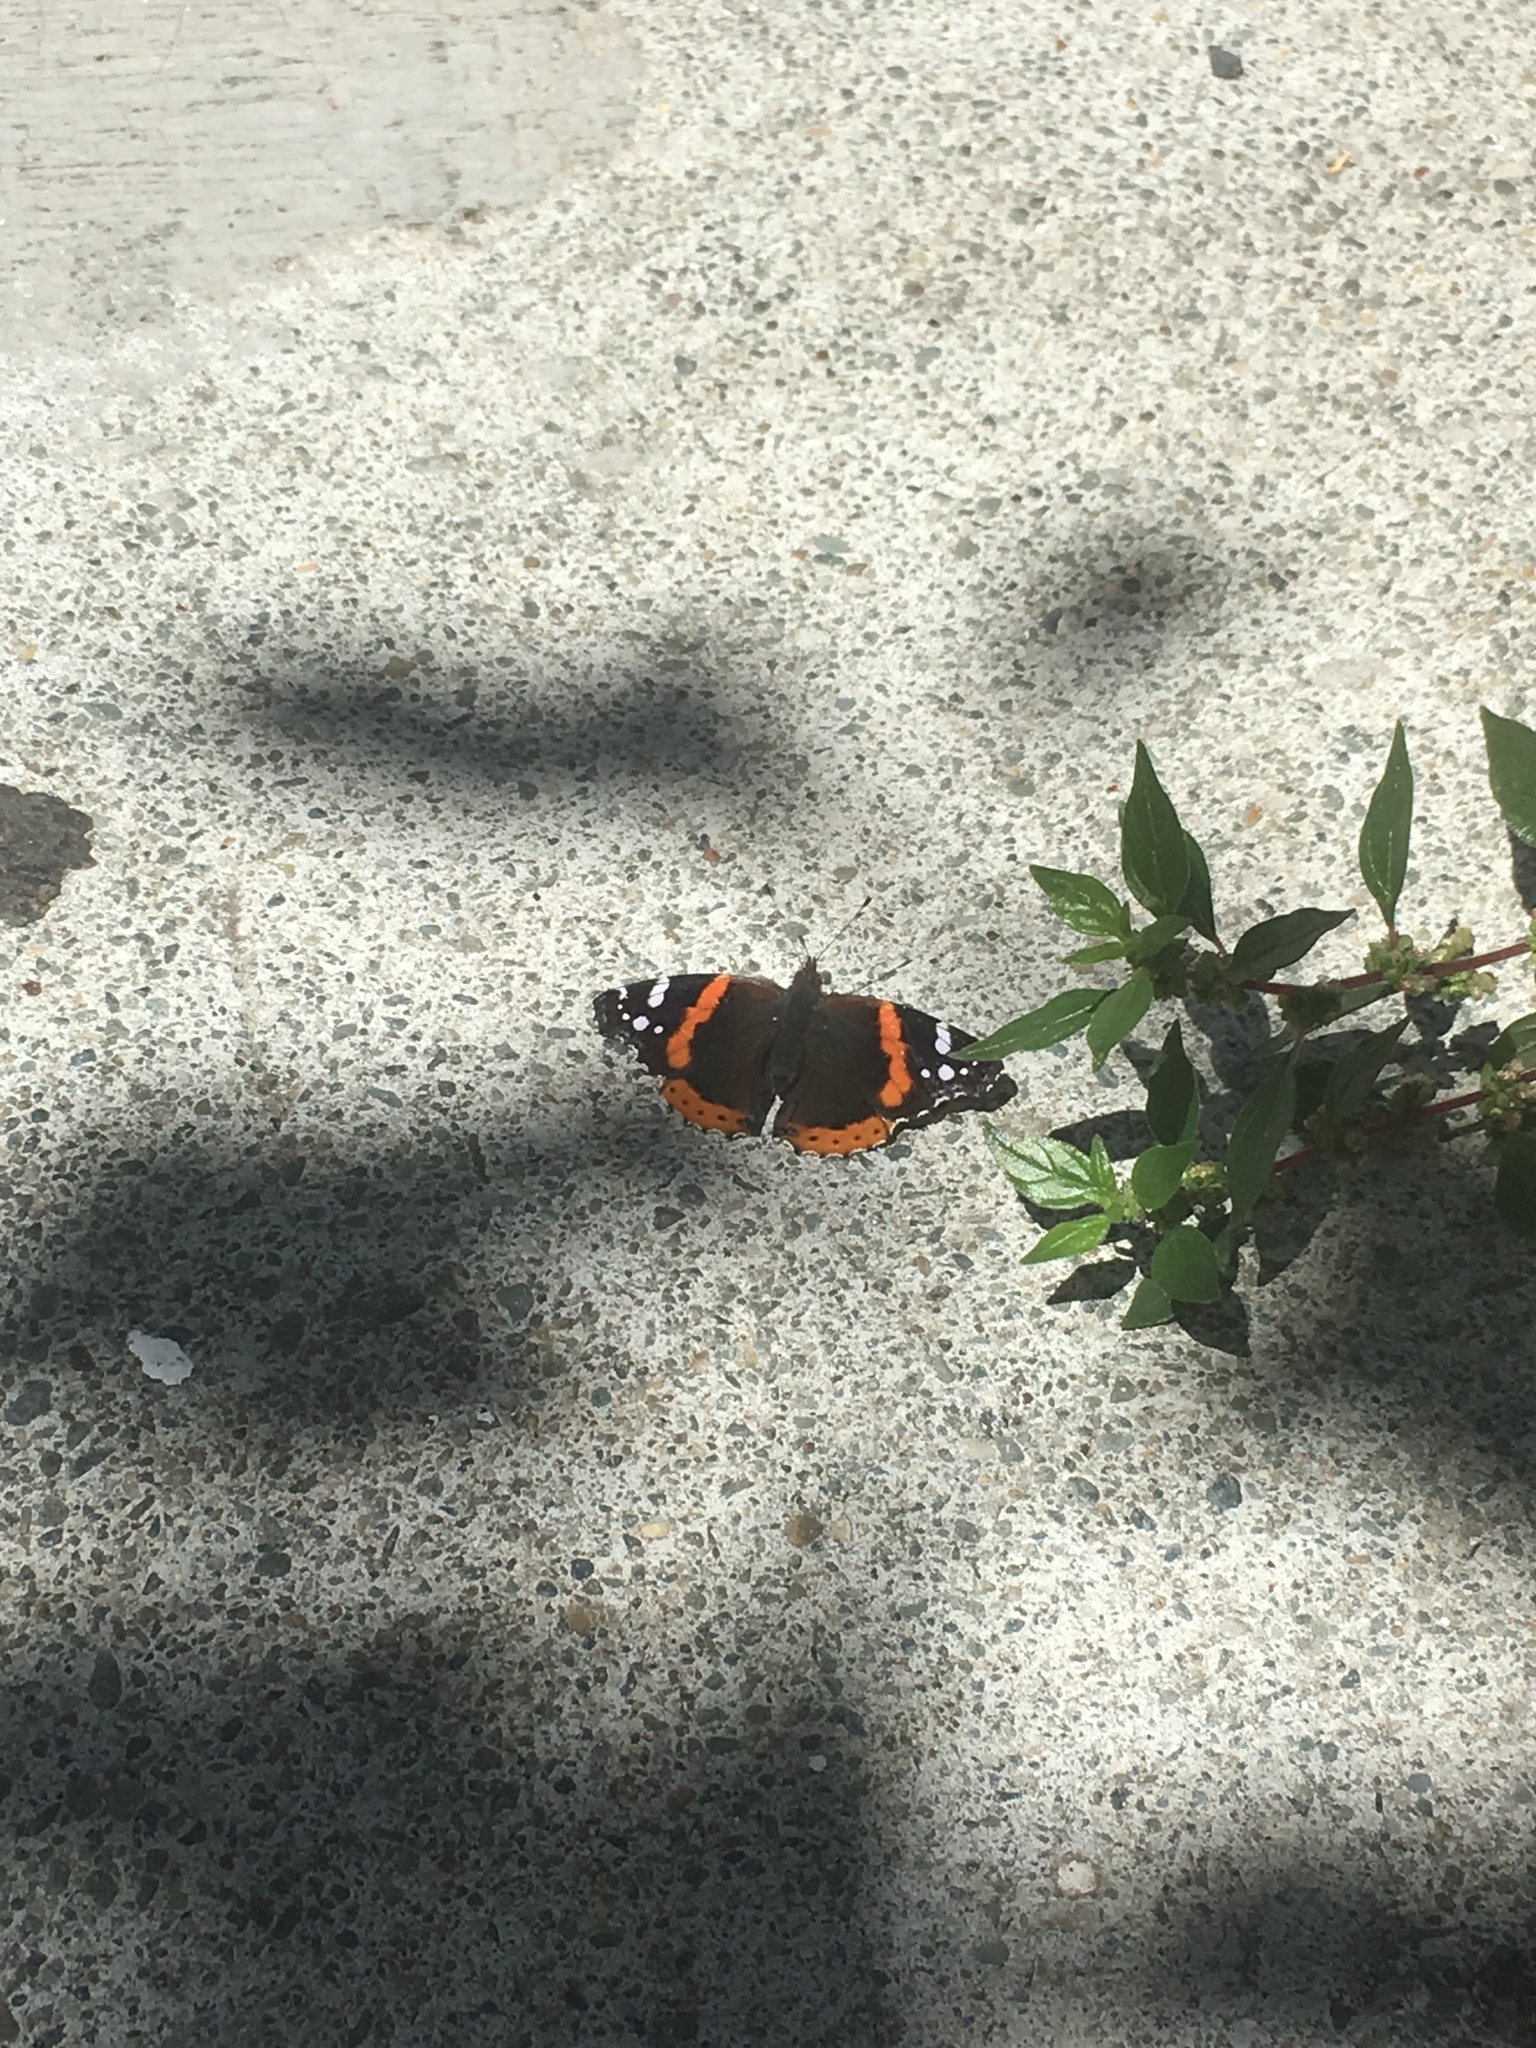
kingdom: Animalia
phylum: Arthropoda
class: Insecta
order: Lepidoptera
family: Nymphalidae
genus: Vanessa
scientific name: Vanessa atalanta
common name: Red admiral
